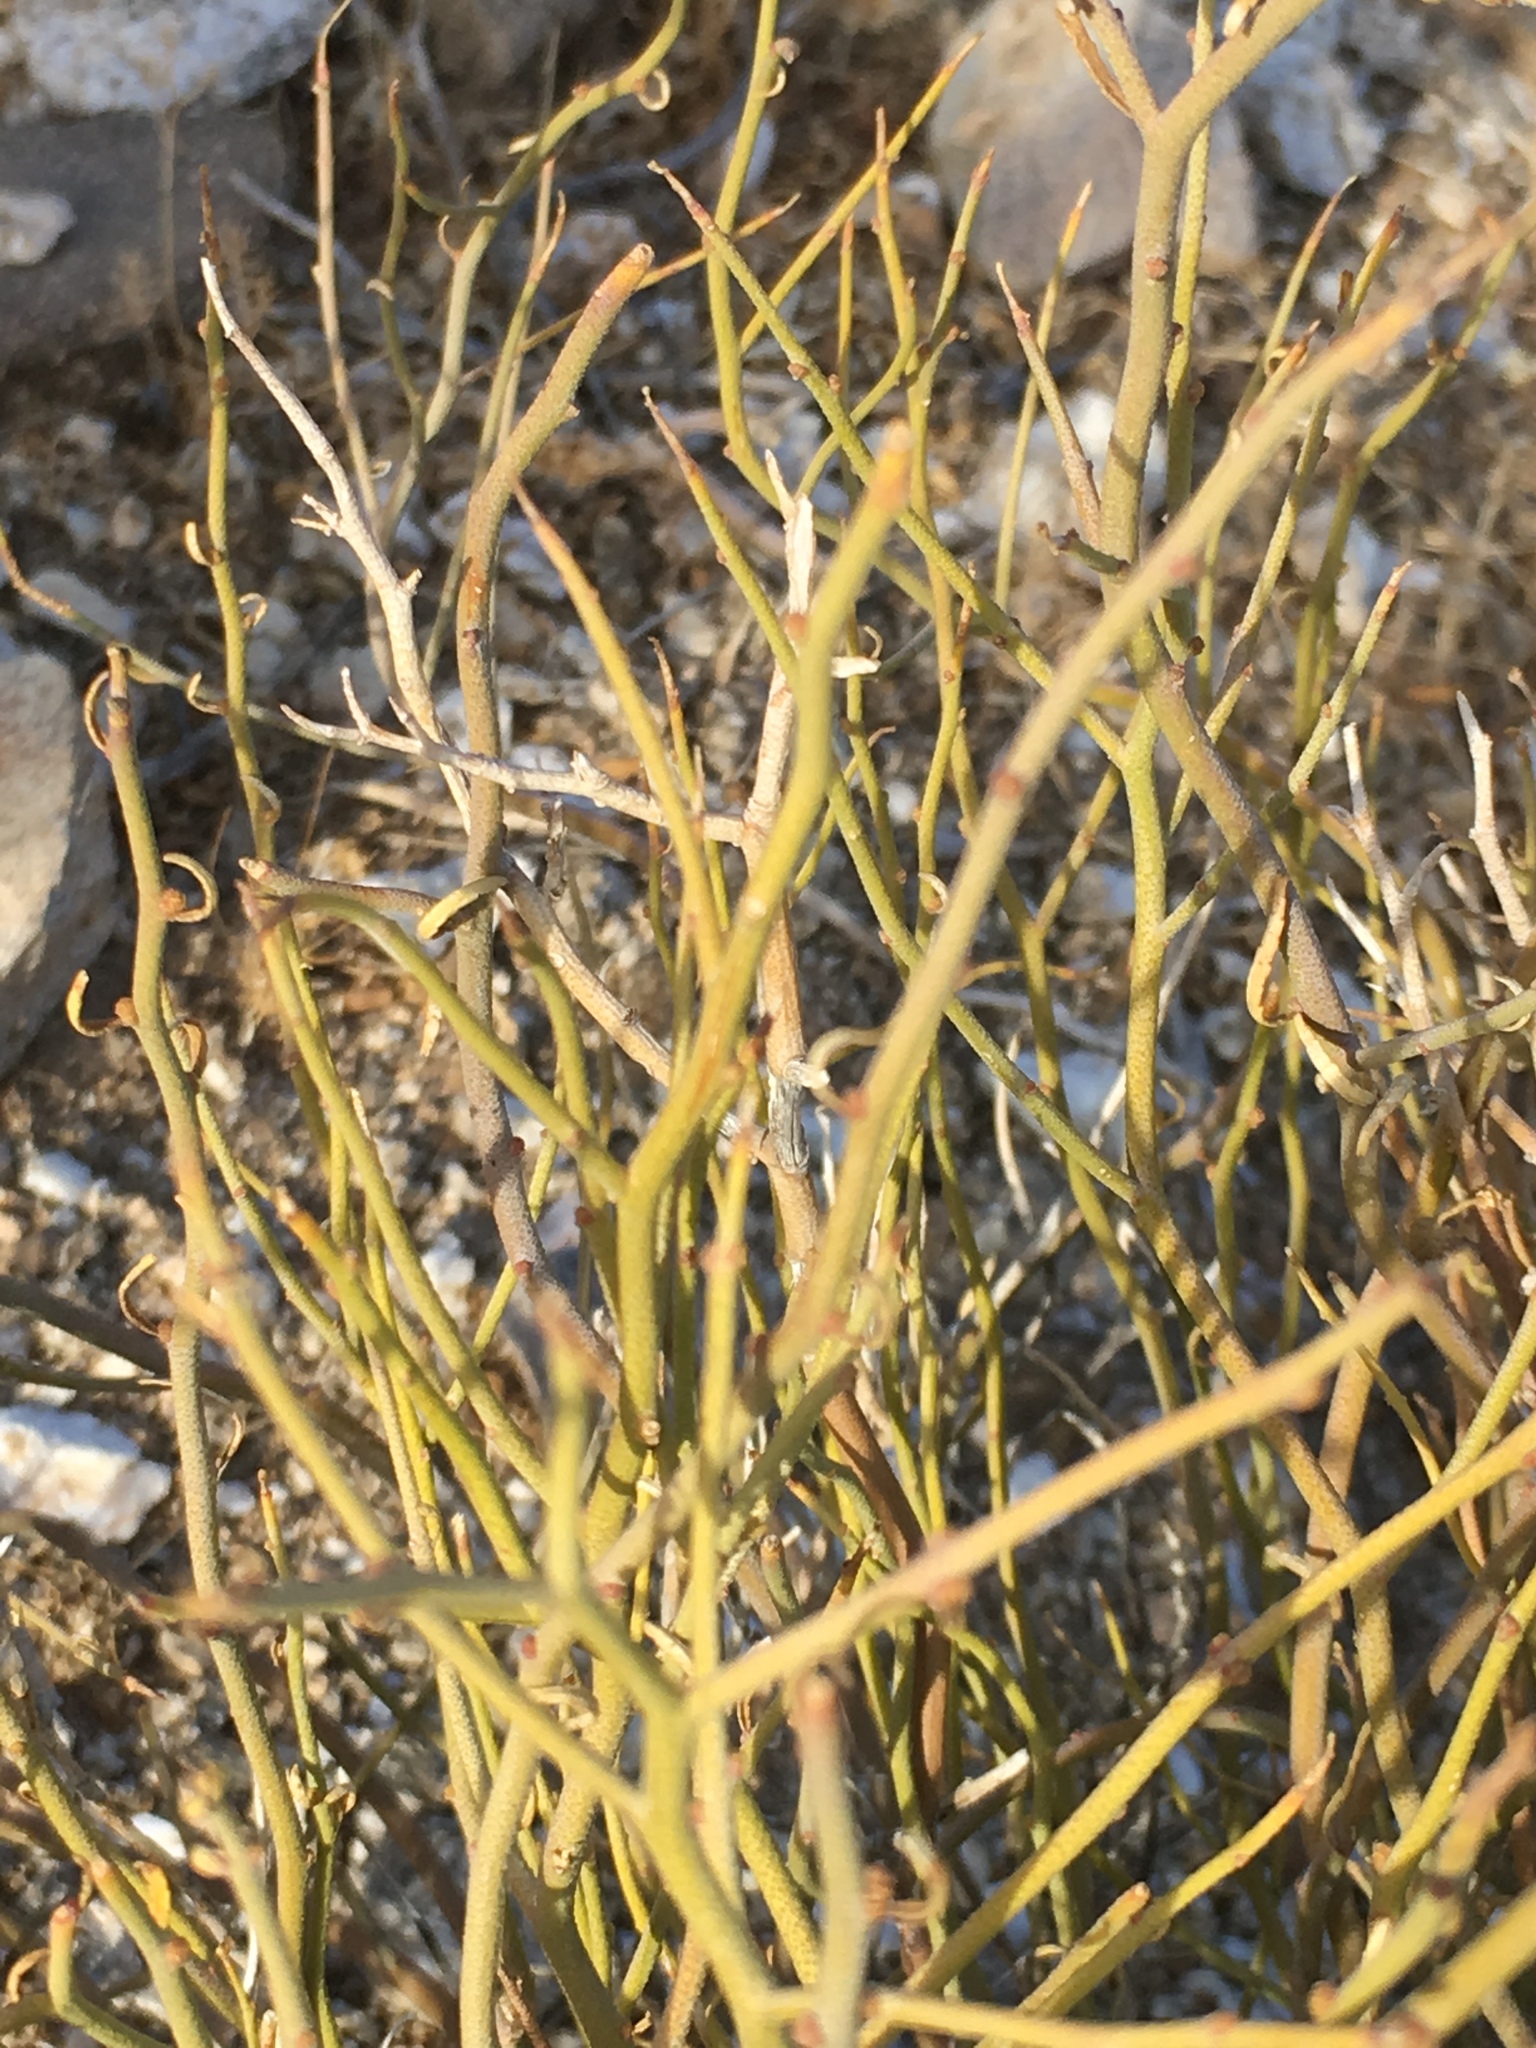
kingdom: Plantae
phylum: Tracheophyta
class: Magnoliopsida
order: Sapindales
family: Rutaceae
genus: Thamnosma
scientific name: Thamnosma montana
